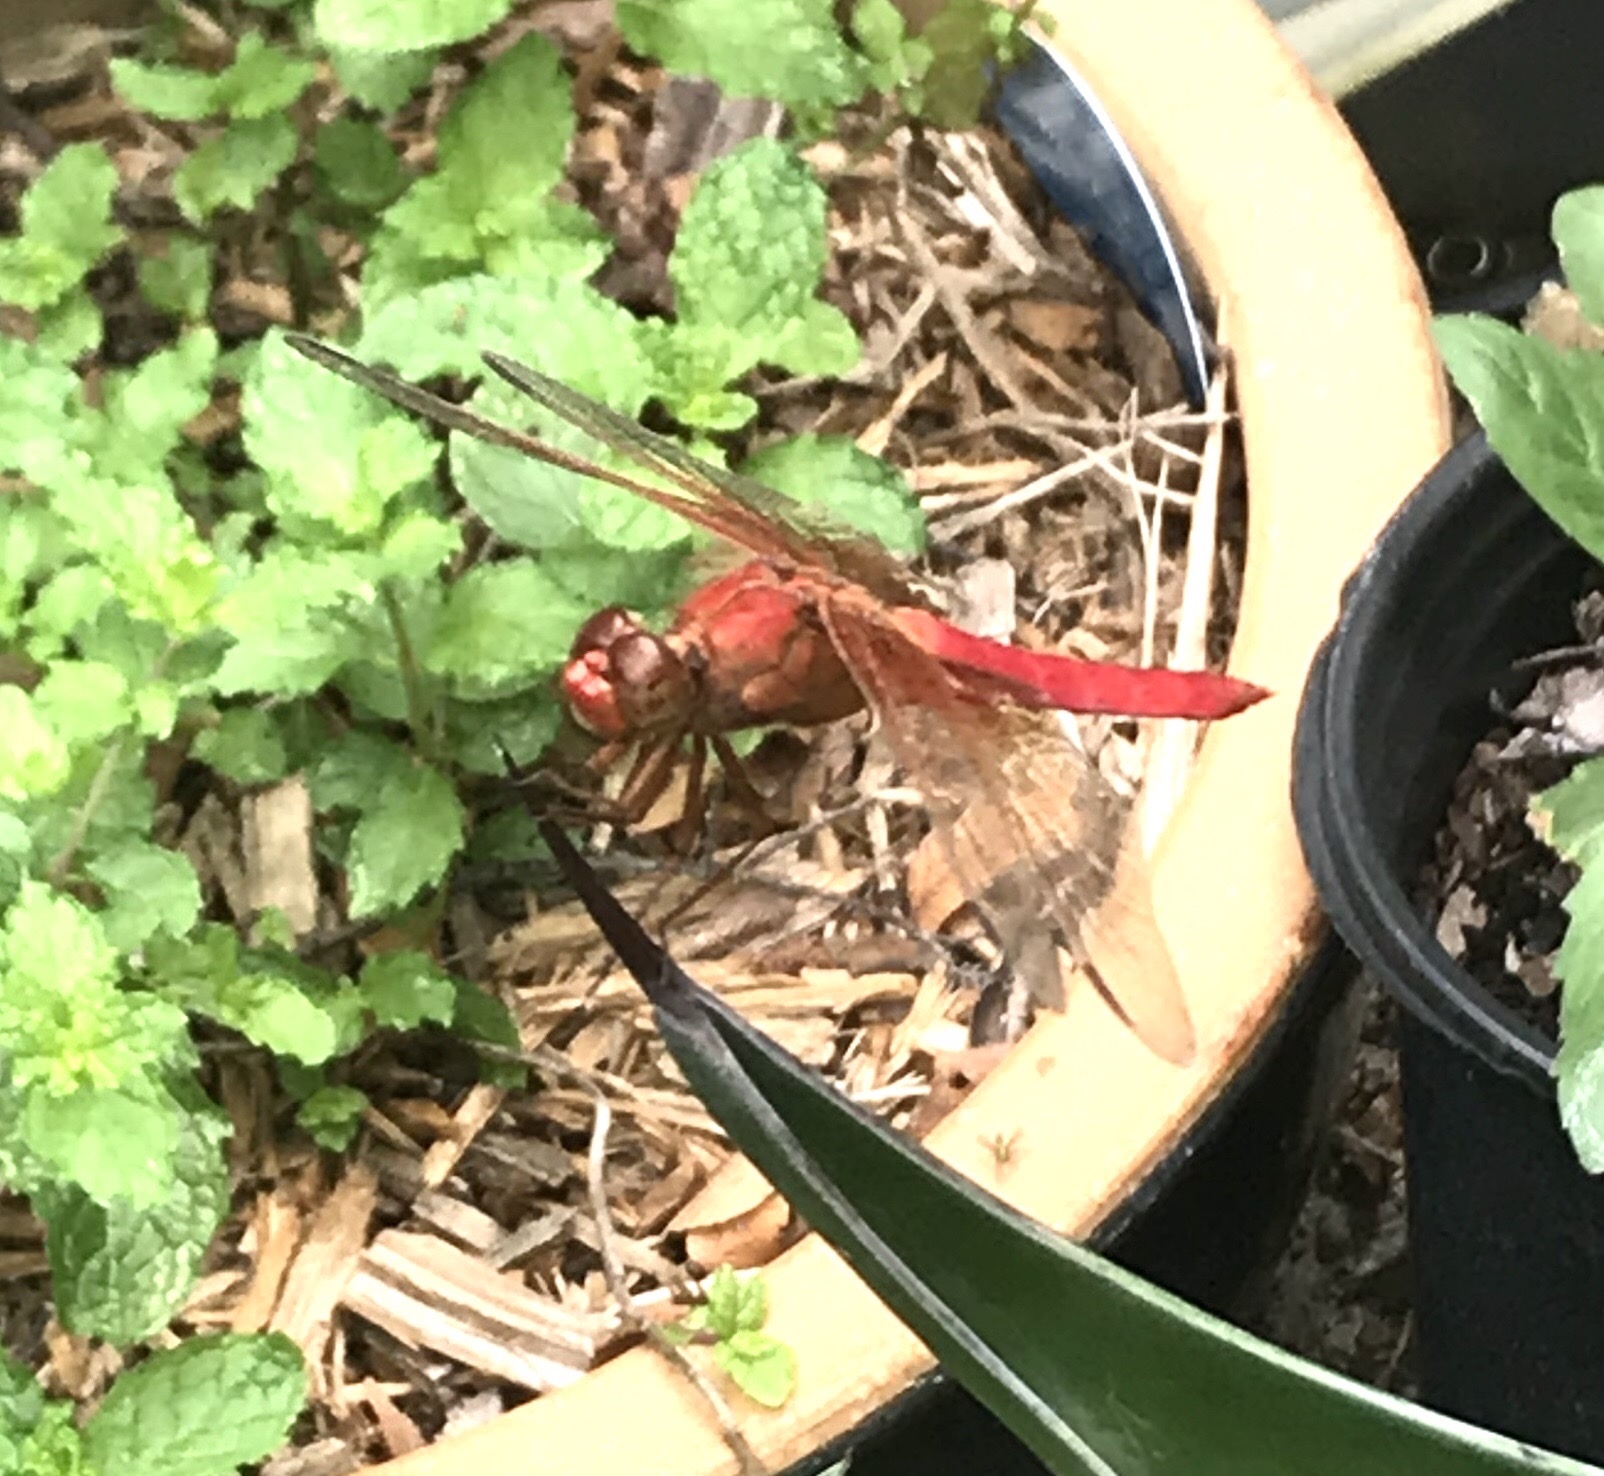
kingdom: Animalia
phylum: Arthropoda
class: Insecta
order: Odonata
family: Libellulidae
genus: Libellula
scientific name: Libellula croceipennis
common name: Neon skimmer
